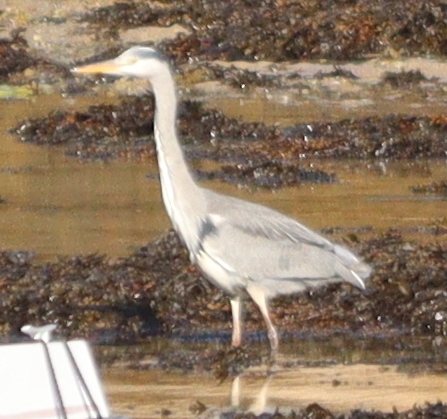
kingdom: Animalia
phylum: Chordata
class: Aves
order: Pelecaniformes
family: Ardeidae
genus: Ardea
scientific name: Ardea cinerea
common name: Grey heron
